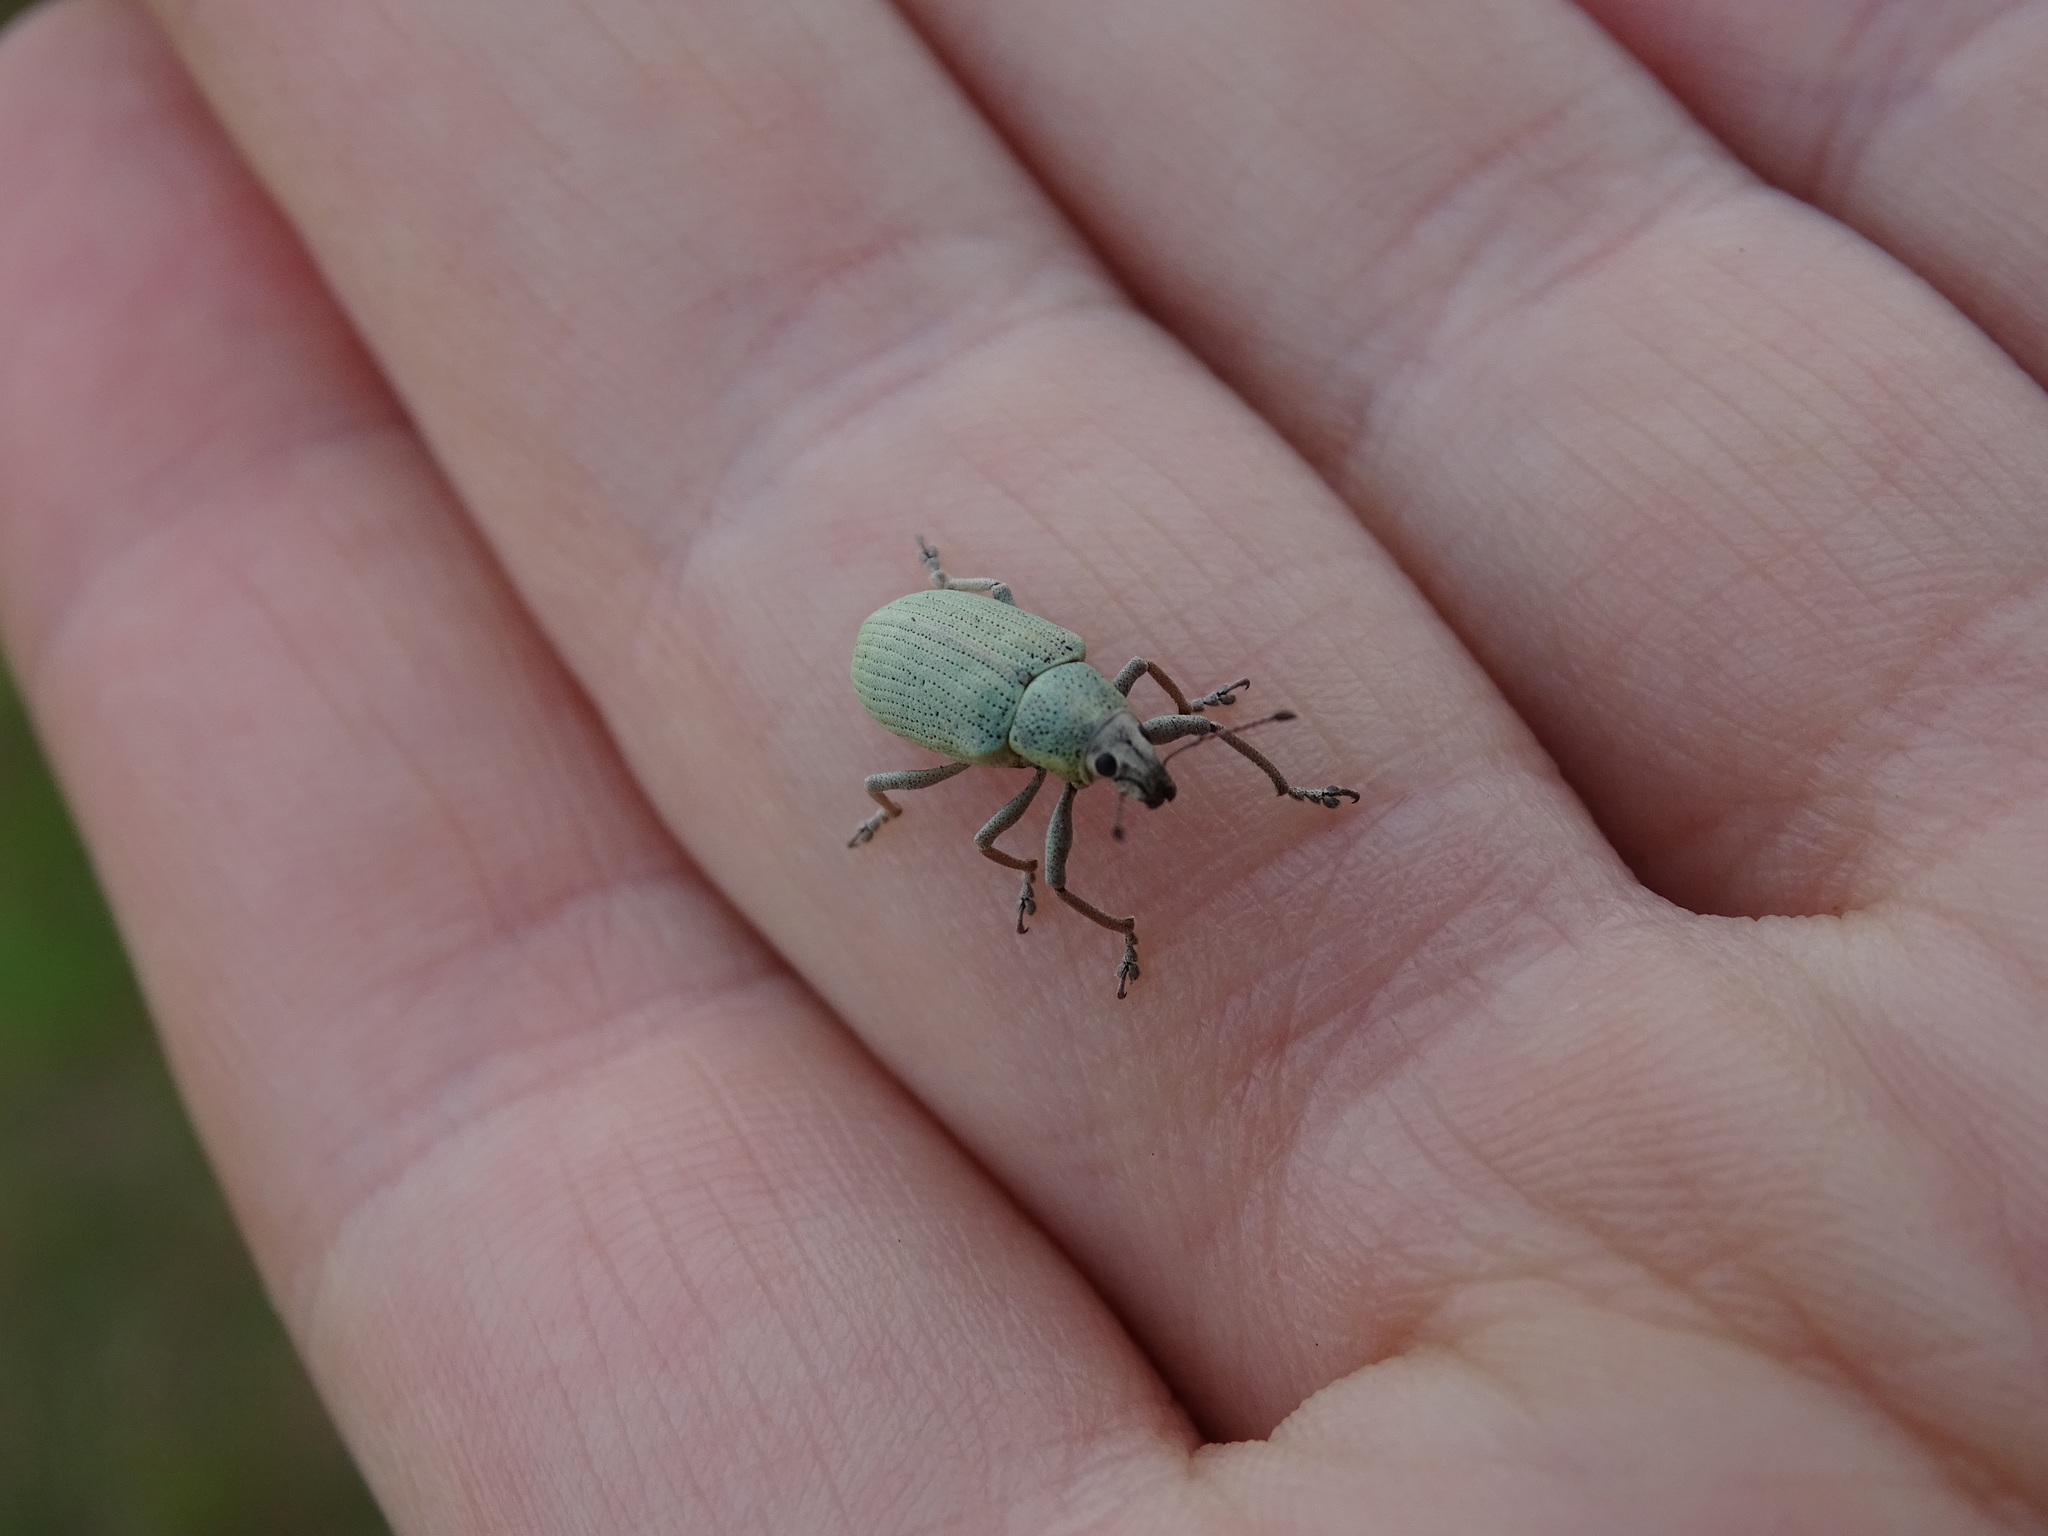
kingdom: Animalia
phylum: Arthropoda
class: Insecta
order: Coleoptera
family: Curculionidae
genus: Pachnaeus
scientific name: Pachnaeus opalus
